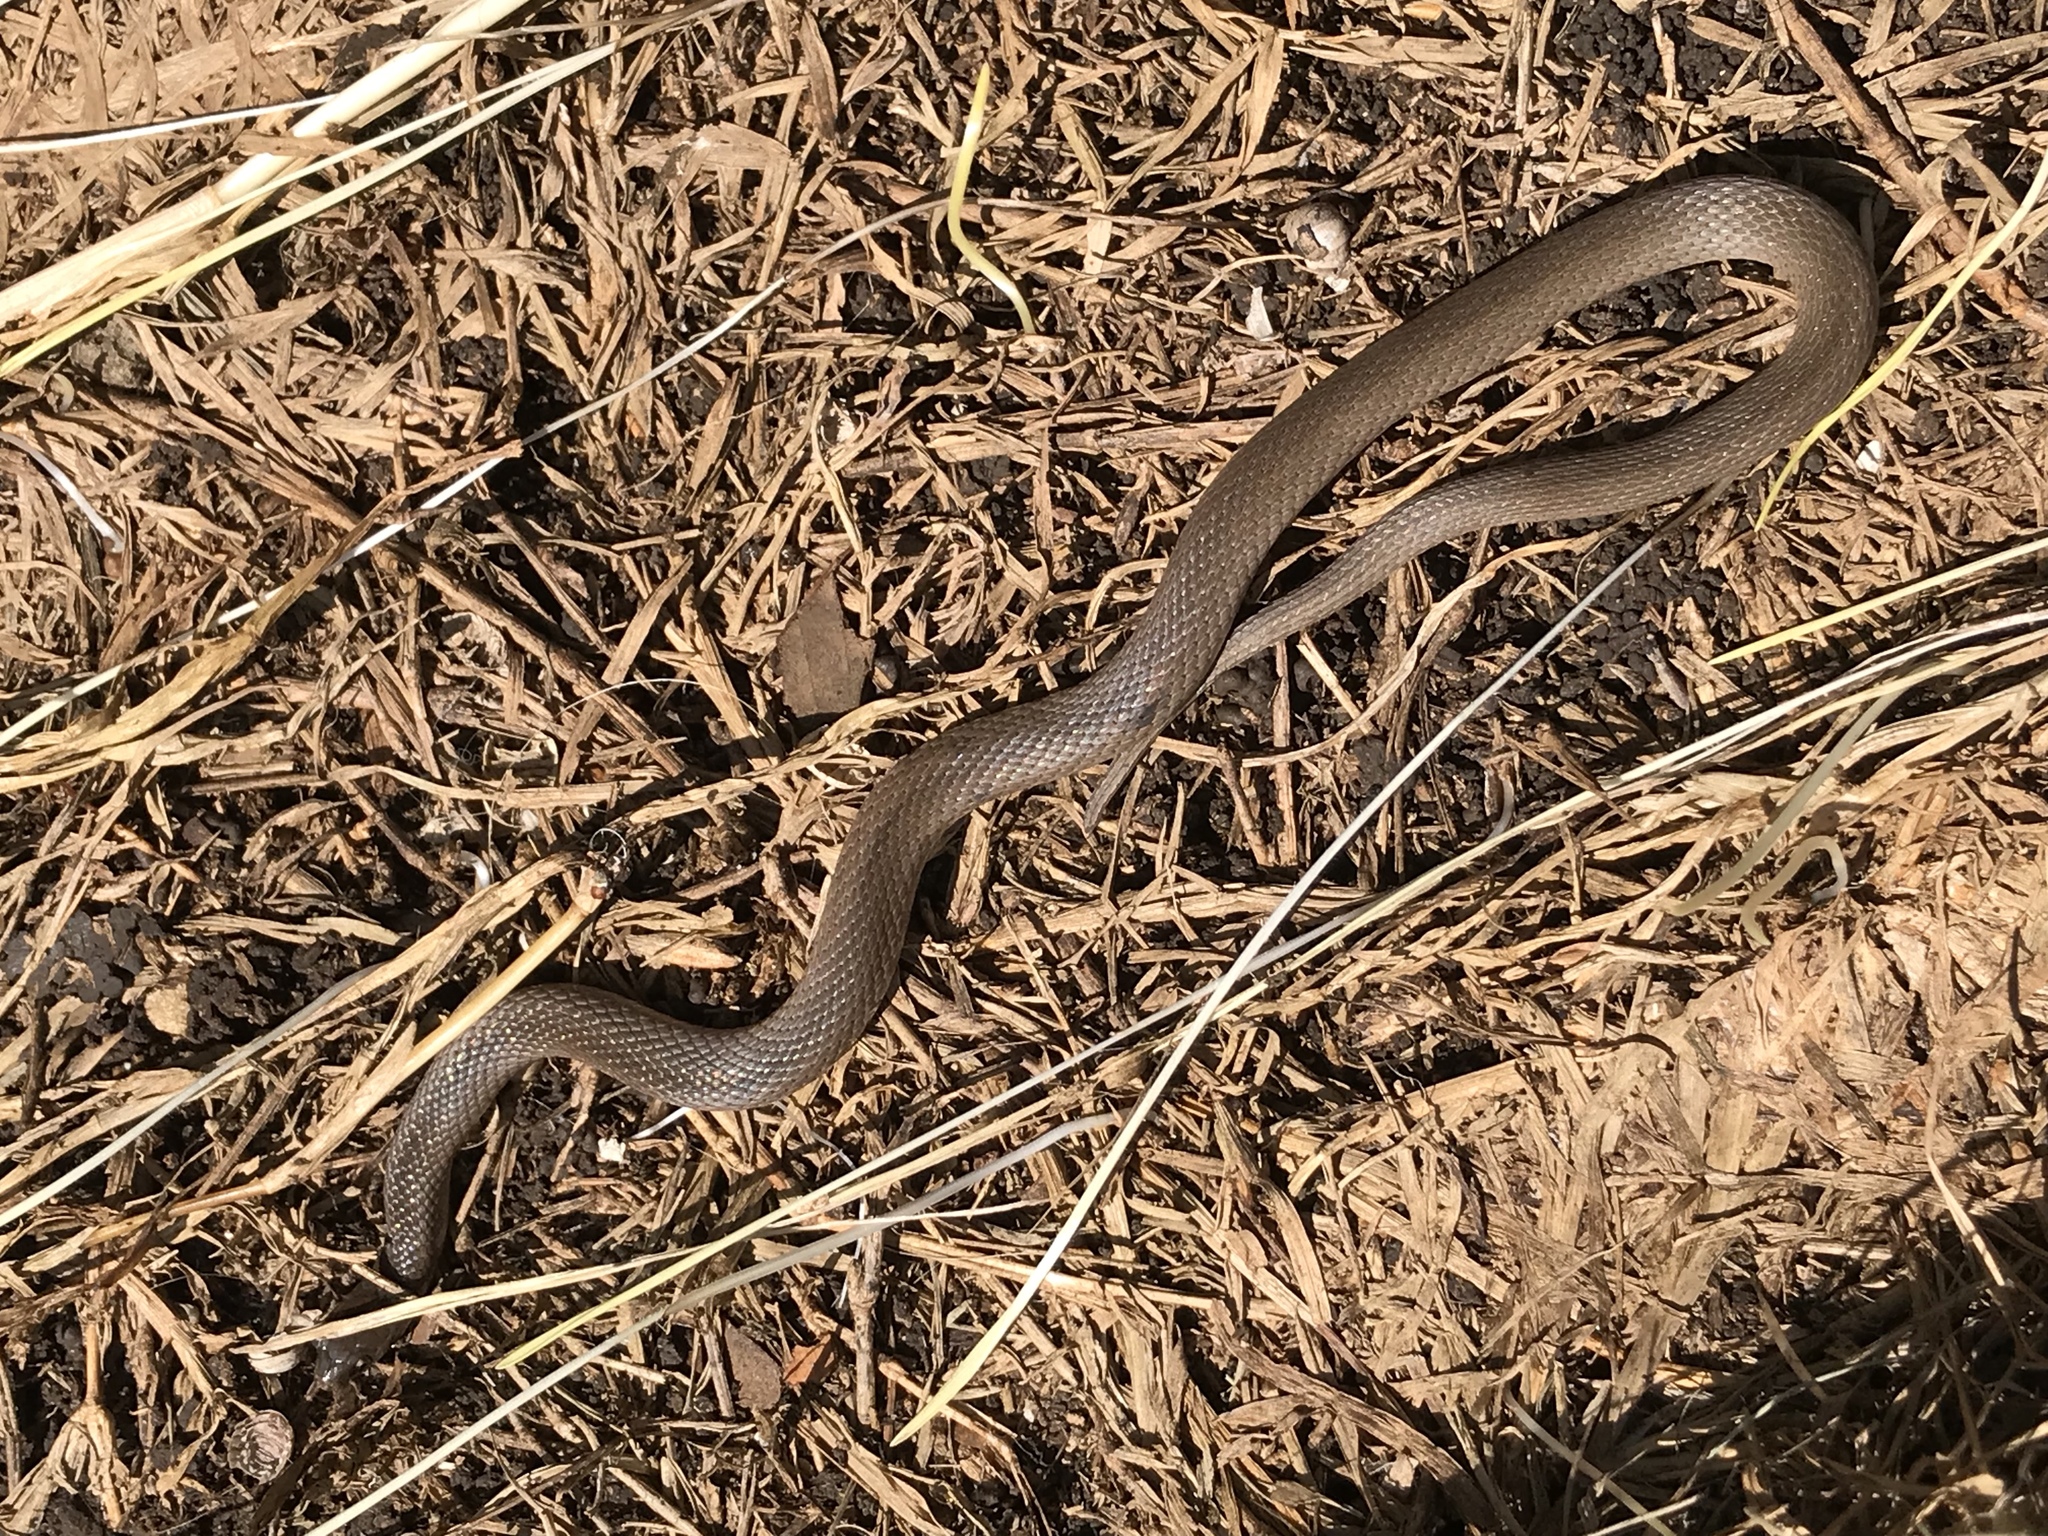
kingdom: Animalia
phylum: Chordata
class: Squamata
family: Colubridae
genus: Haldea
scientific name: Haldea striatula
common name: Rough earth snake
